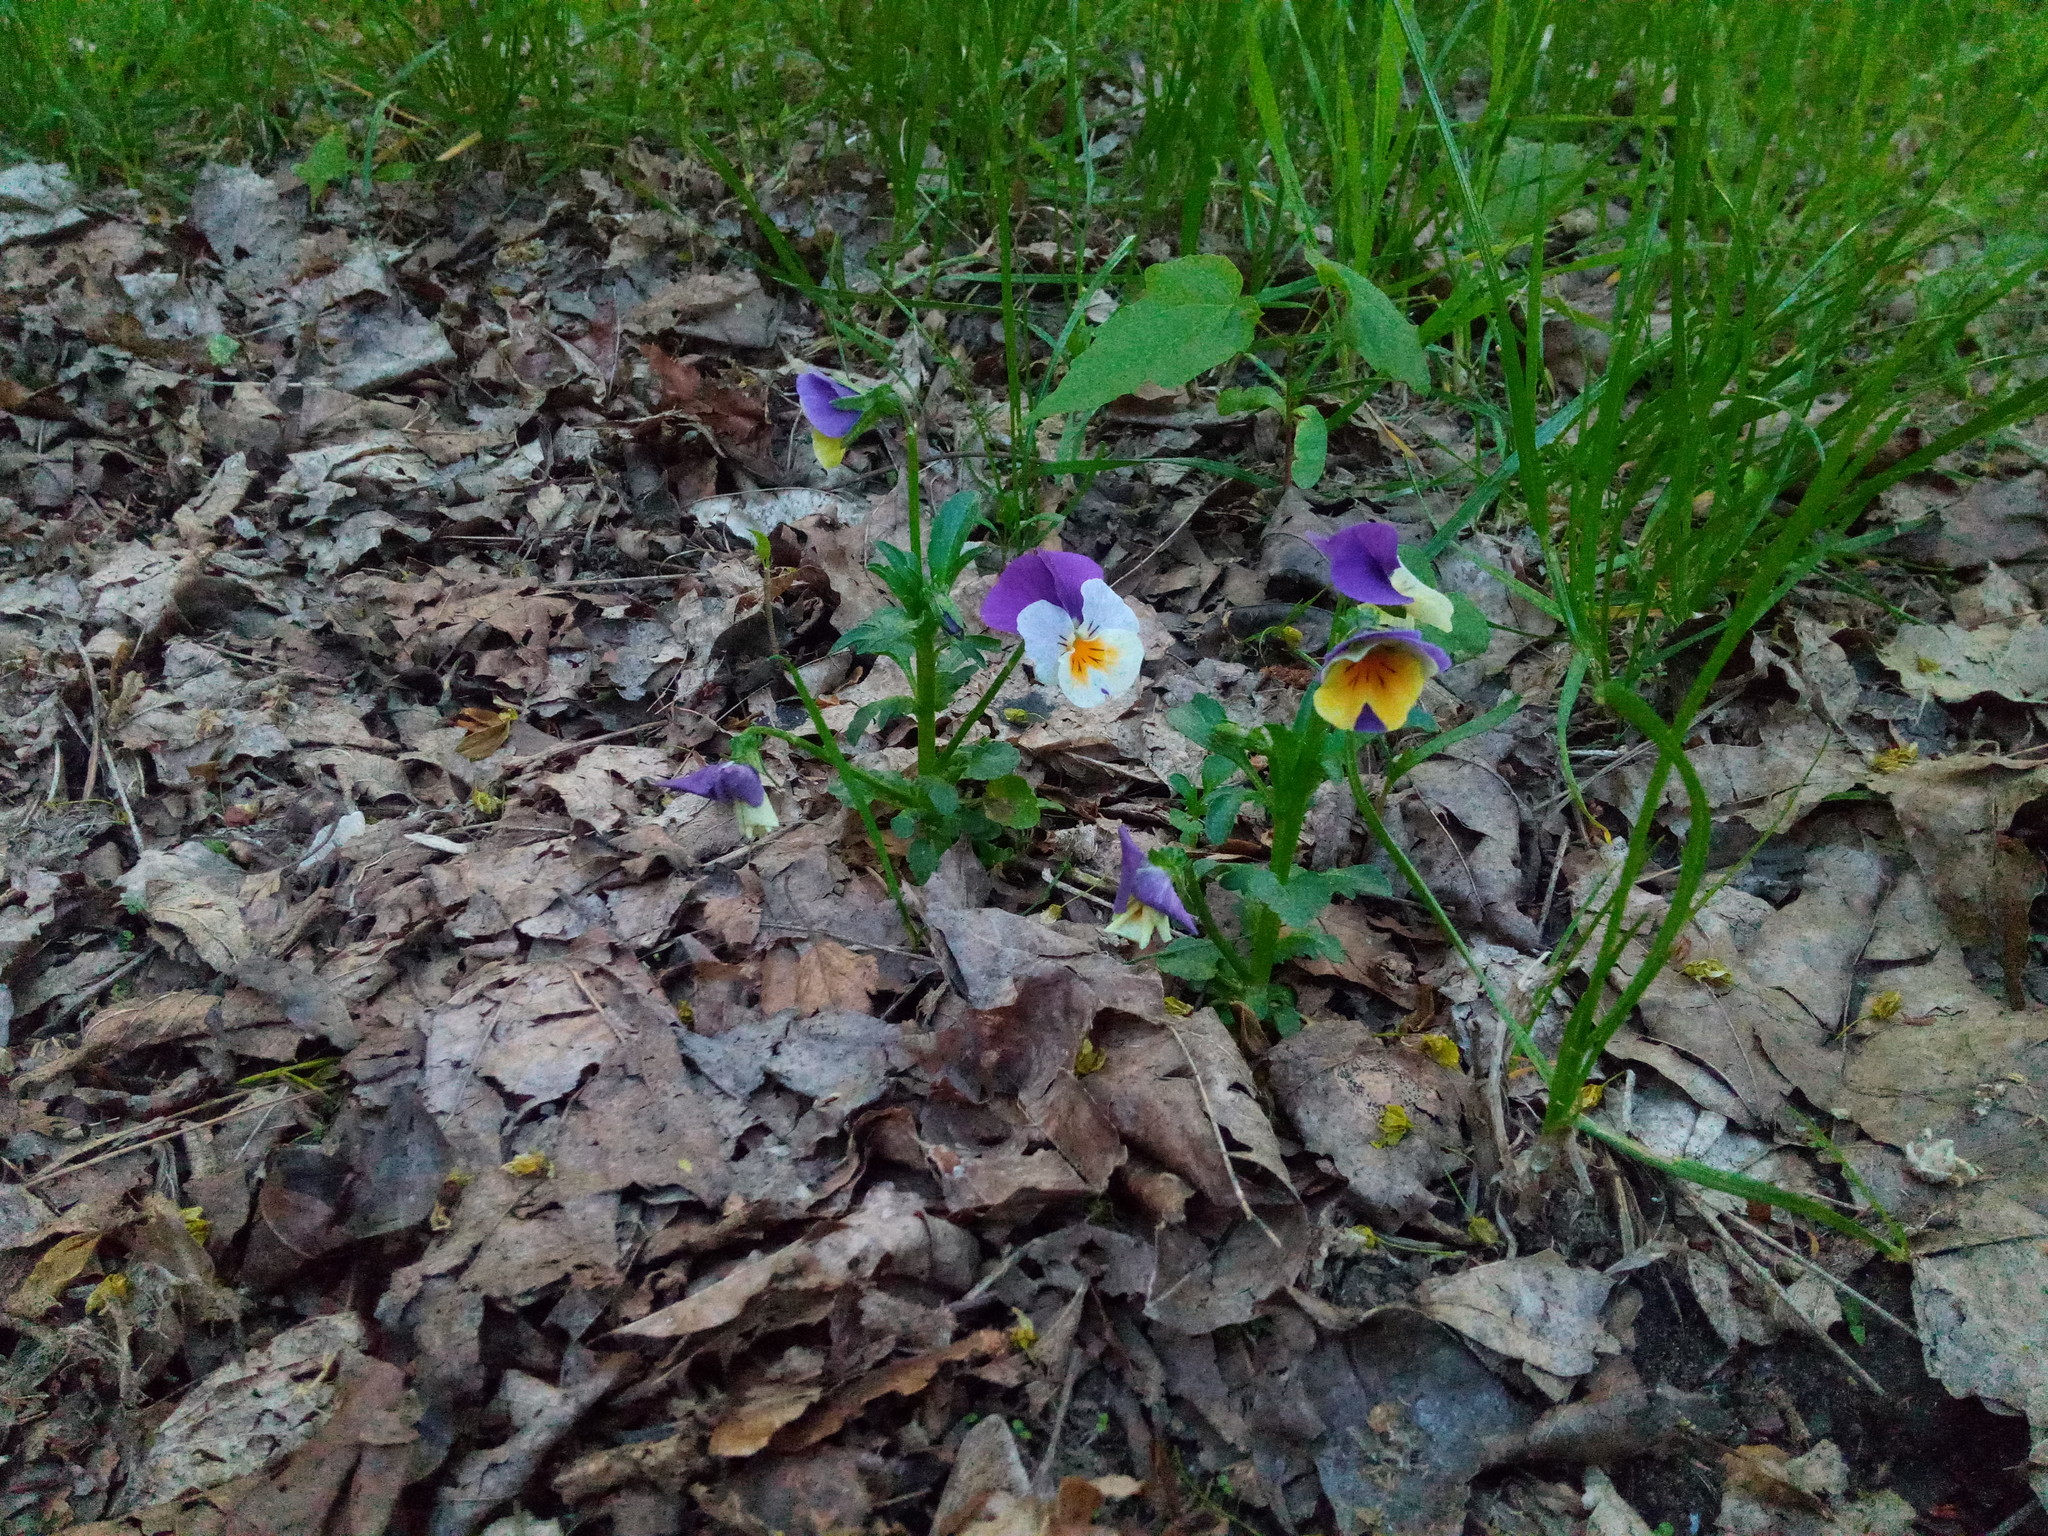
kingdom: Plantae
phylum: Tracheophyta
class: Magnoliopsida
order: Malpighiales
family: Violaceae
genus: Viola
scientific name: Viola wittrockiana
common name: Garden pansy
